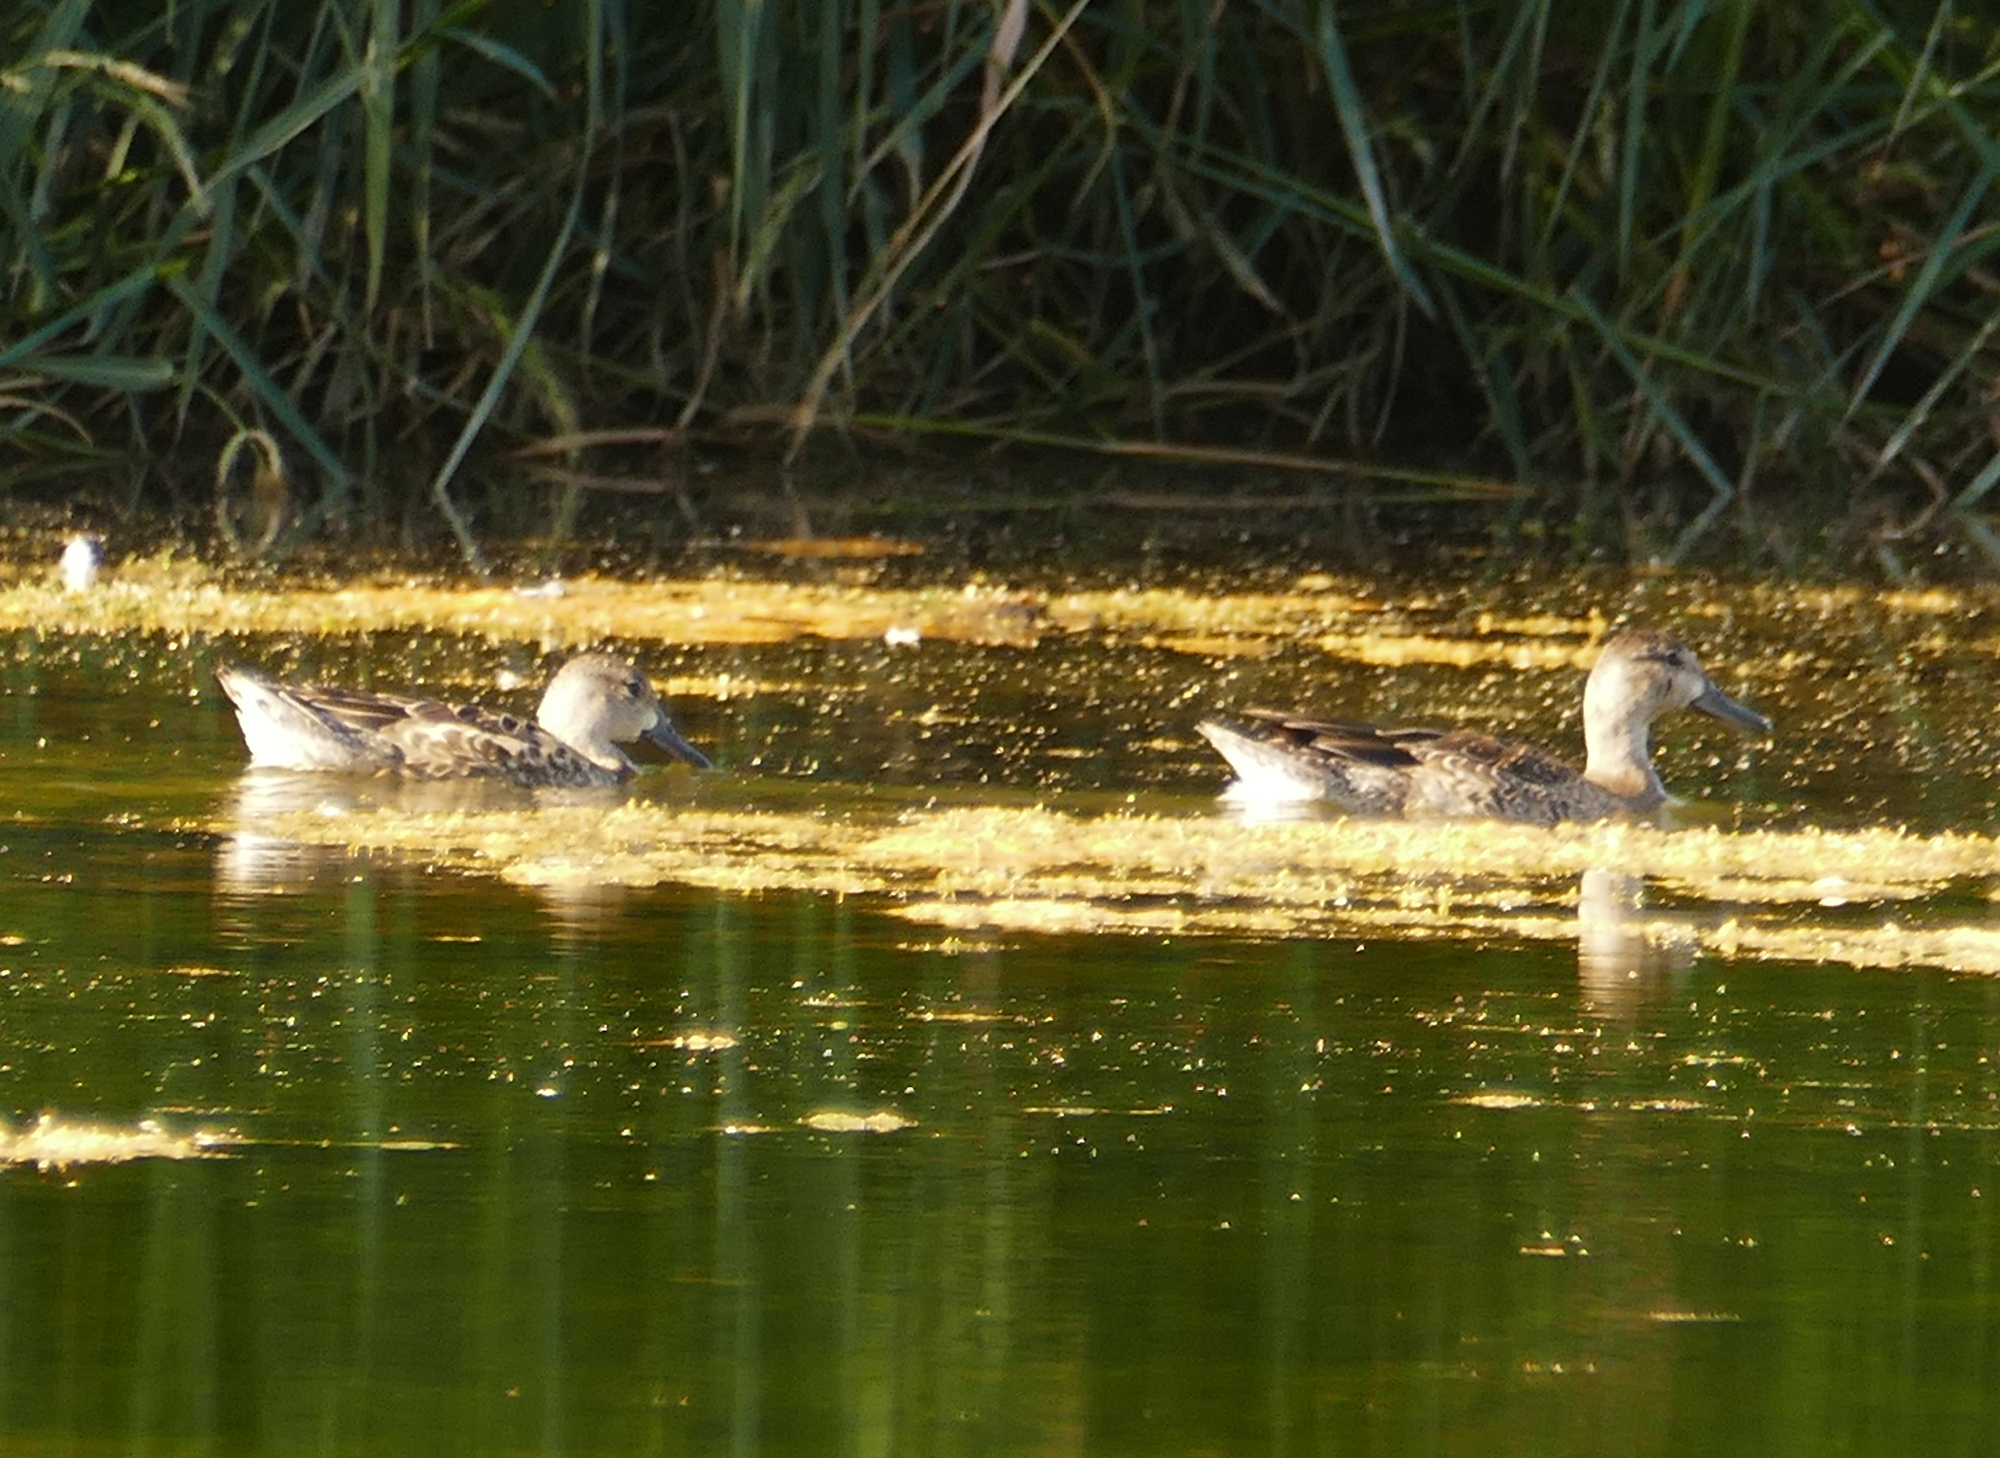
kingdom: Animalia
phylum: Chordata
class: Aves
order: Anseriformes
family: Anatidae
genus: Spatula
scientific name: Spatula discors
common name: Blue-winged teal
